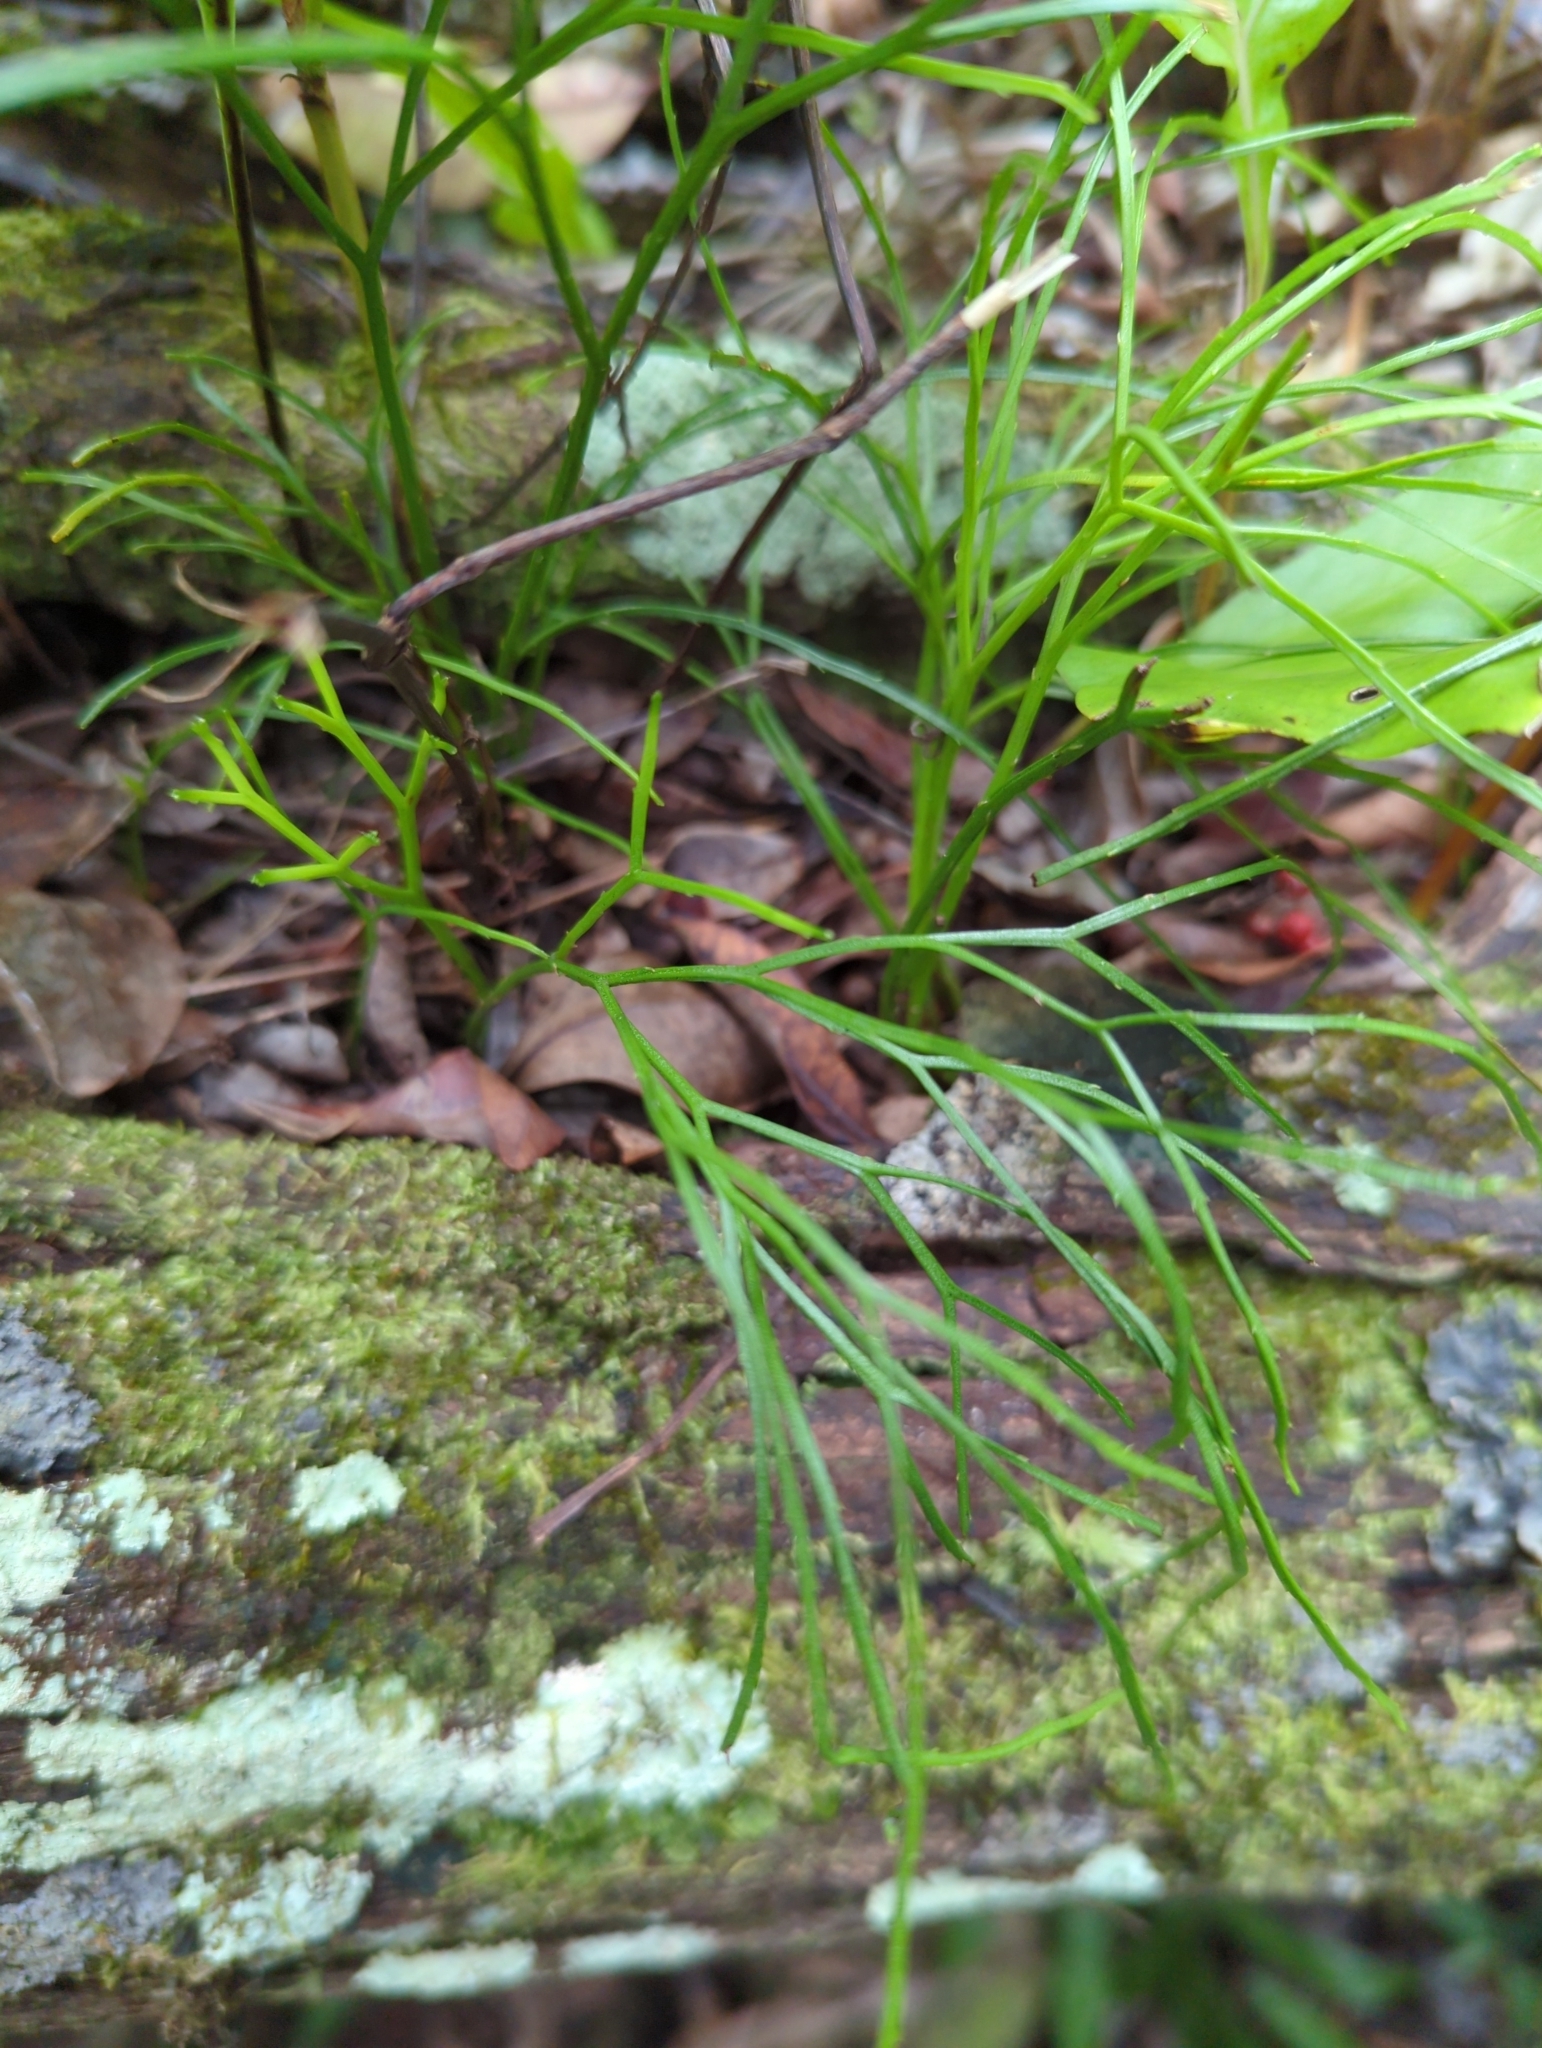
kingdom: Plantae
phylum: Tracheophyta
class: Polypodiopsida
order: Psilotales
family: Psilotaceae
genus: Psilotum
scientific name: Psilotum nudum
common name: Skeleton fork fern
